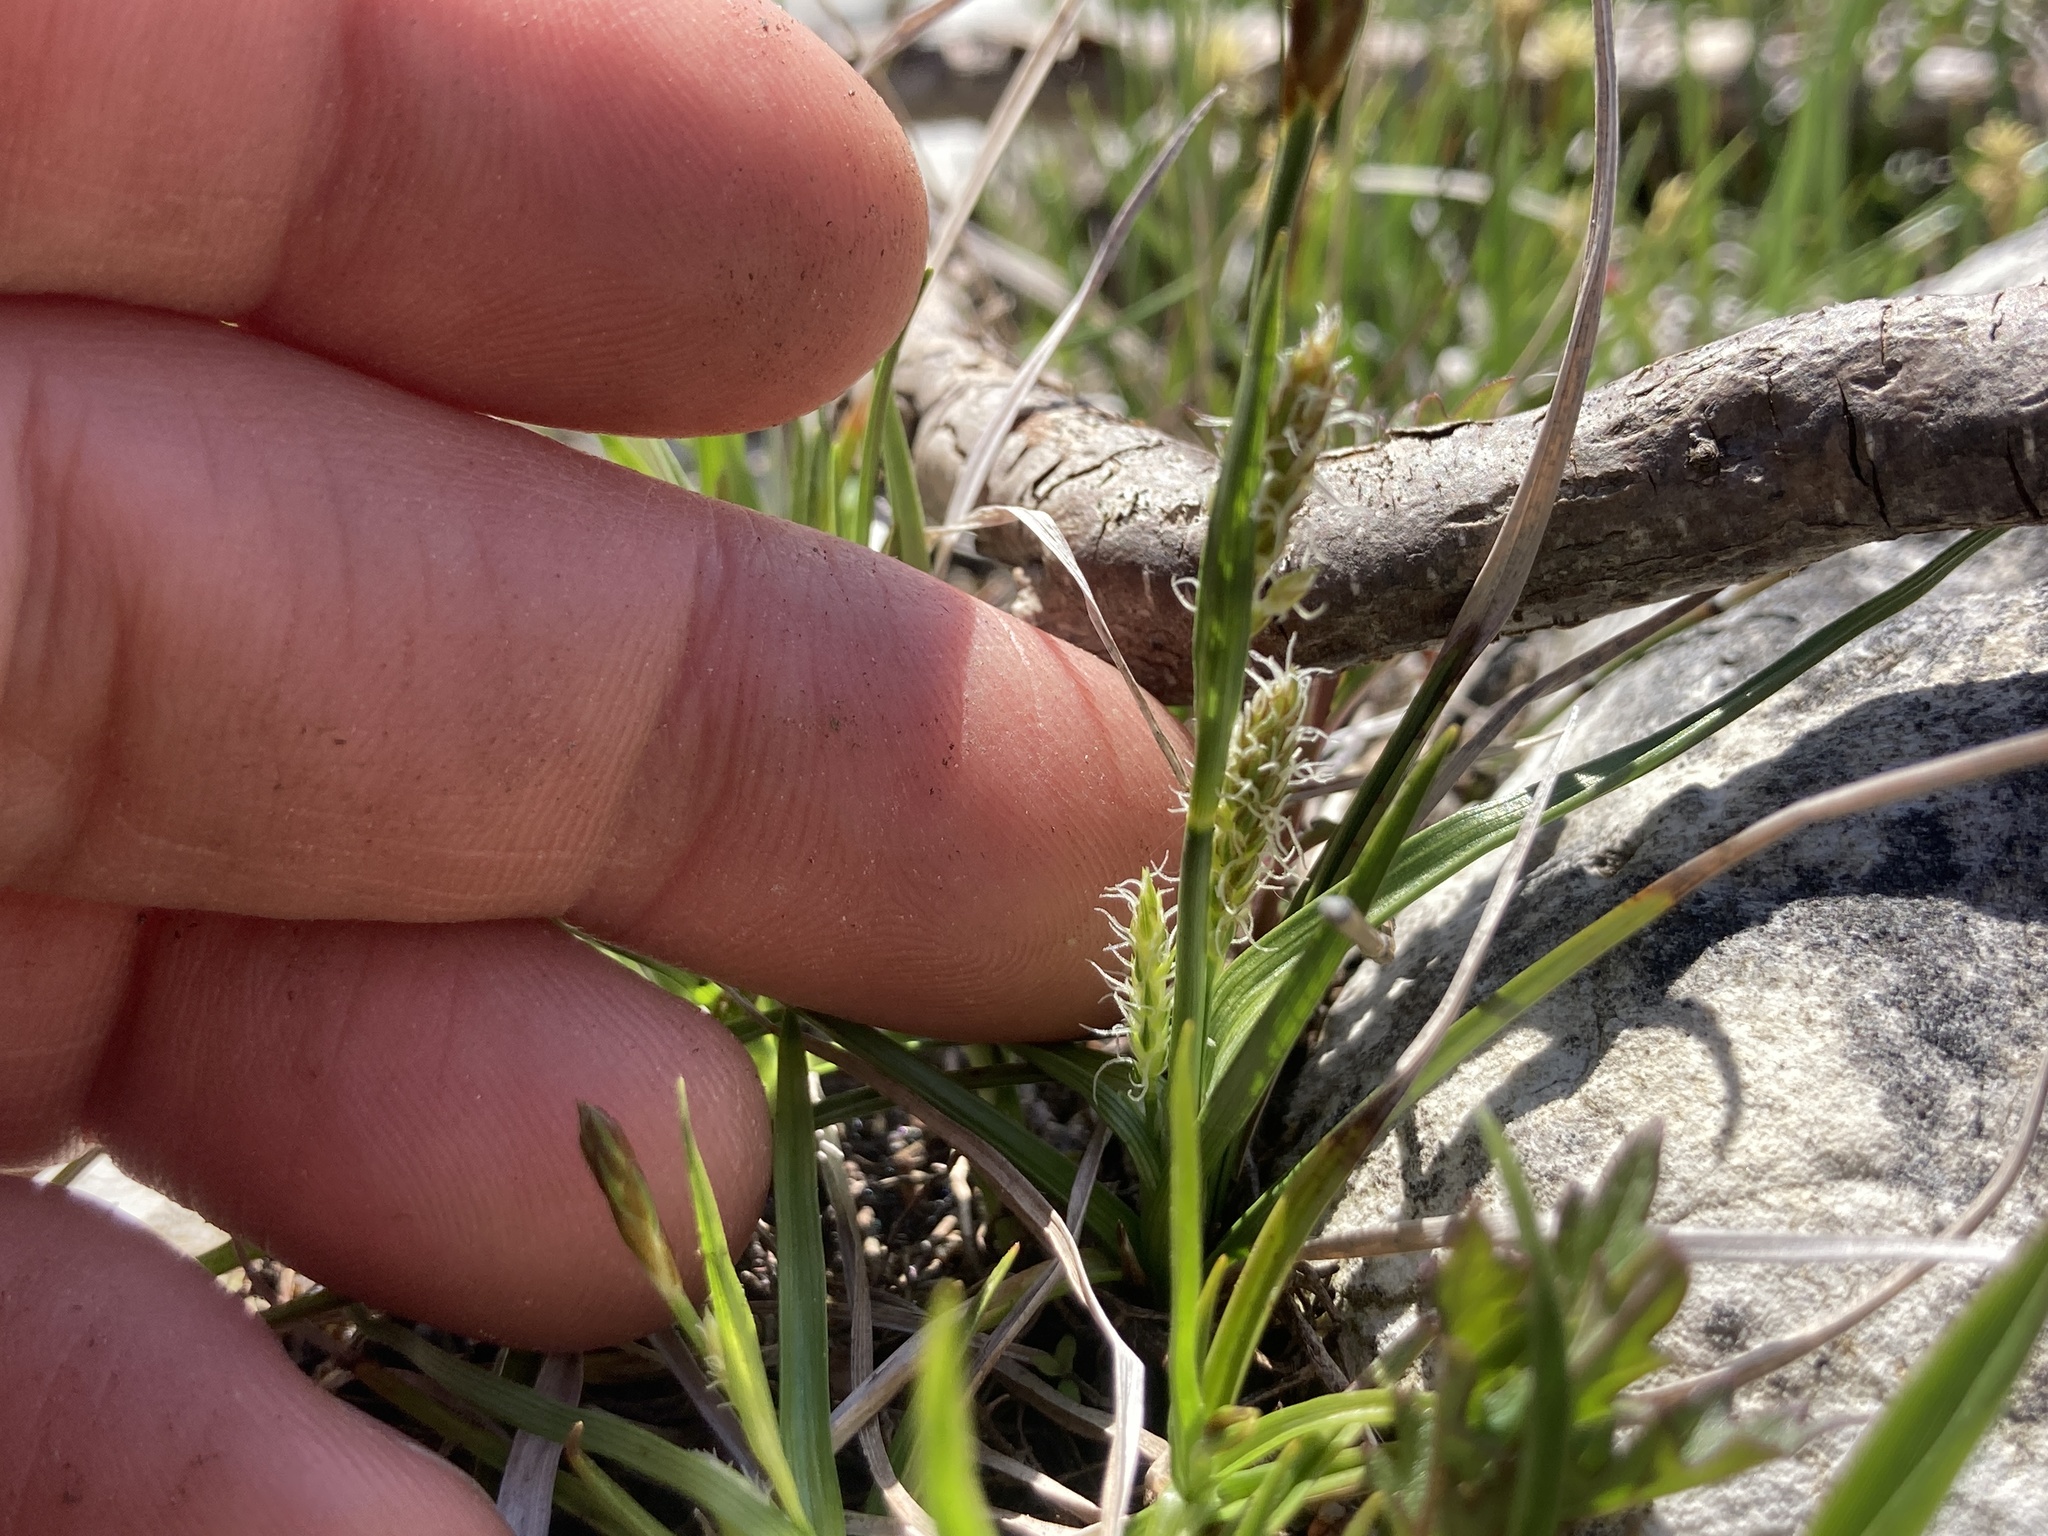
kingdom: Plantae
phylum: Tracheophyta
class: Liliopsida
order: Poales
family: Cyperaceae
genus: Carex
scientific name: Carex crawei
